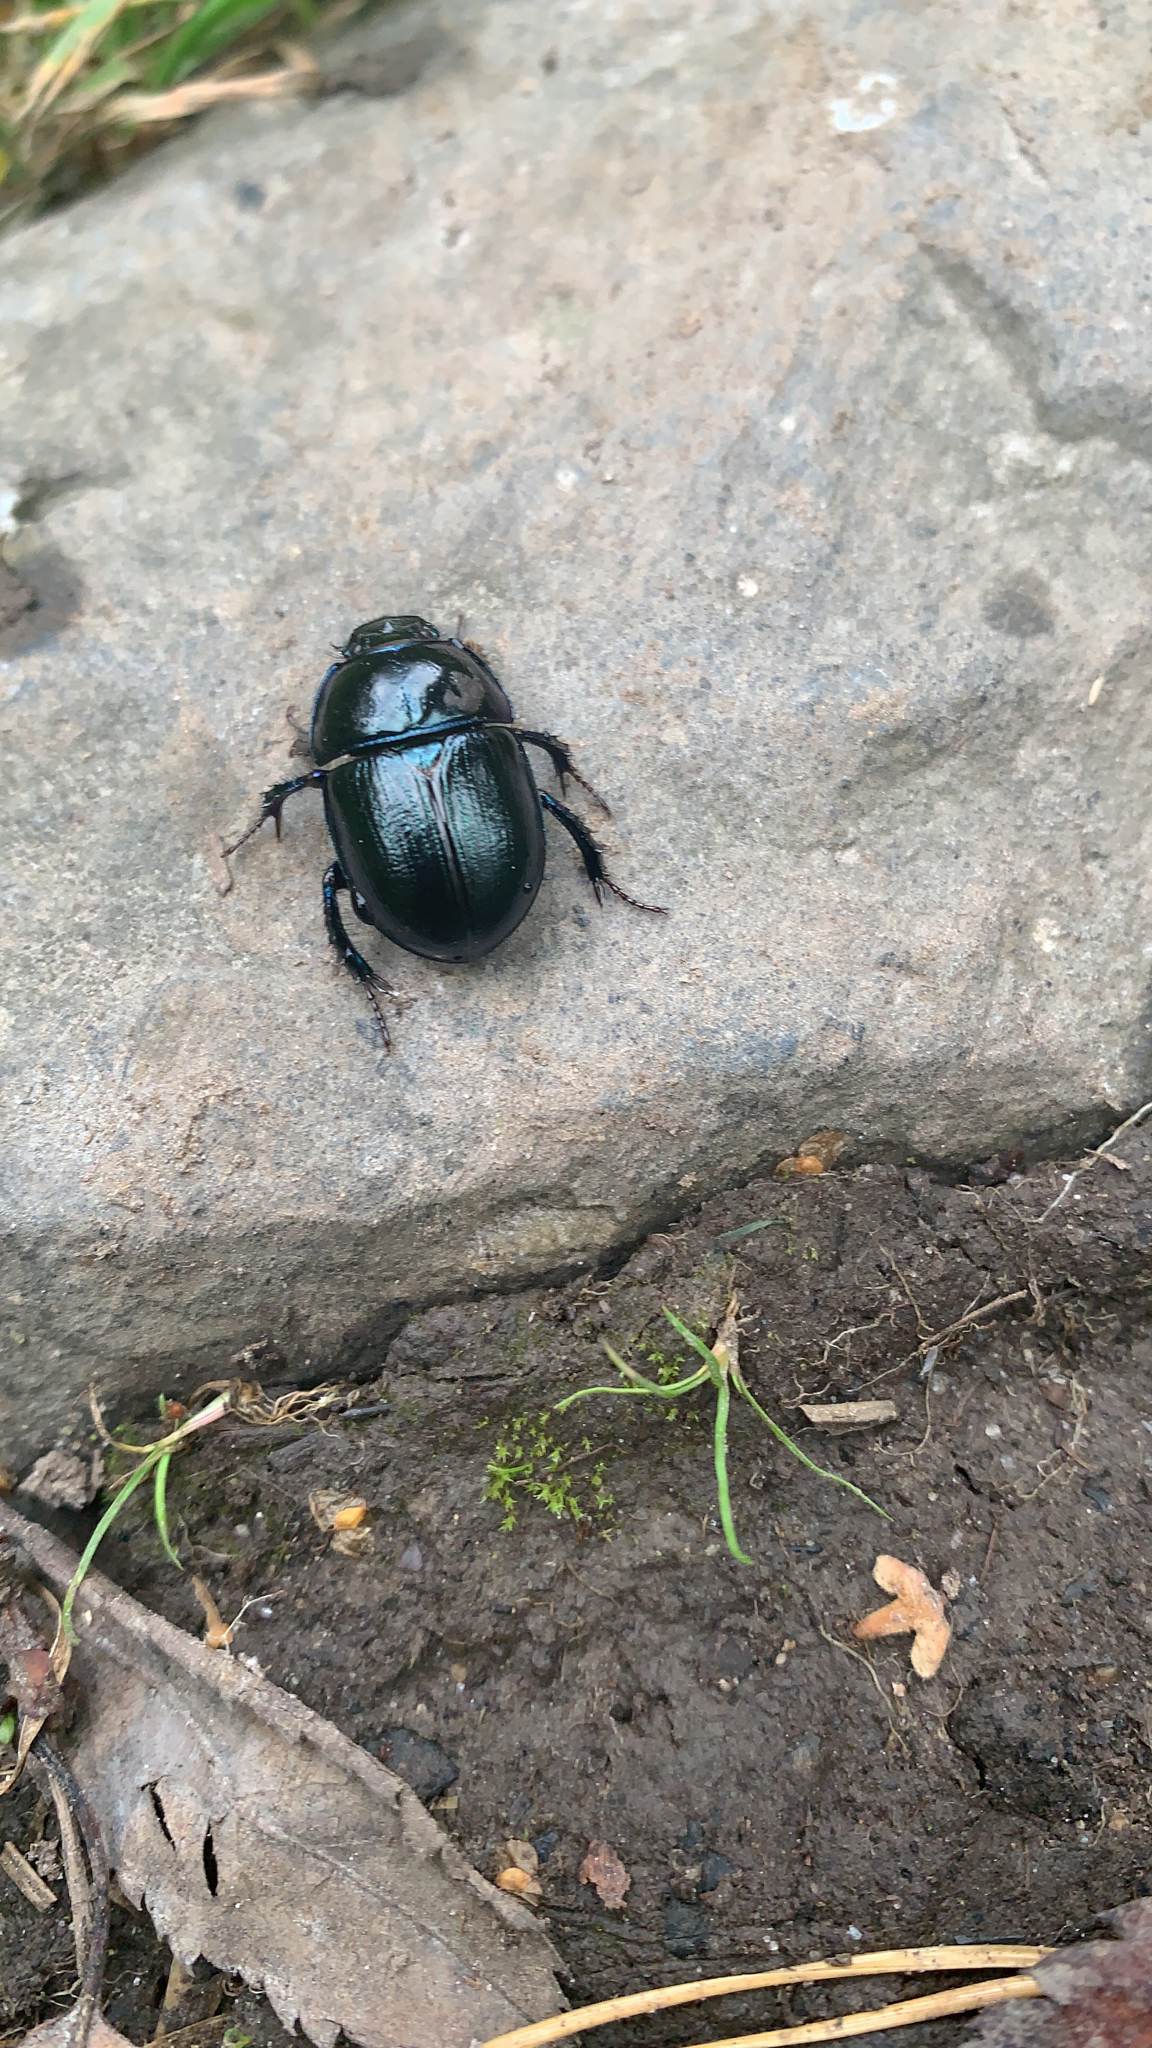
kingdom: Animalia
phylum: Arthropoda
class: Insecta
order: Coleoptera
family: Geotrupidae
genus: Anoplotrupes
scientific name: Anoplotrupes stercorosus
